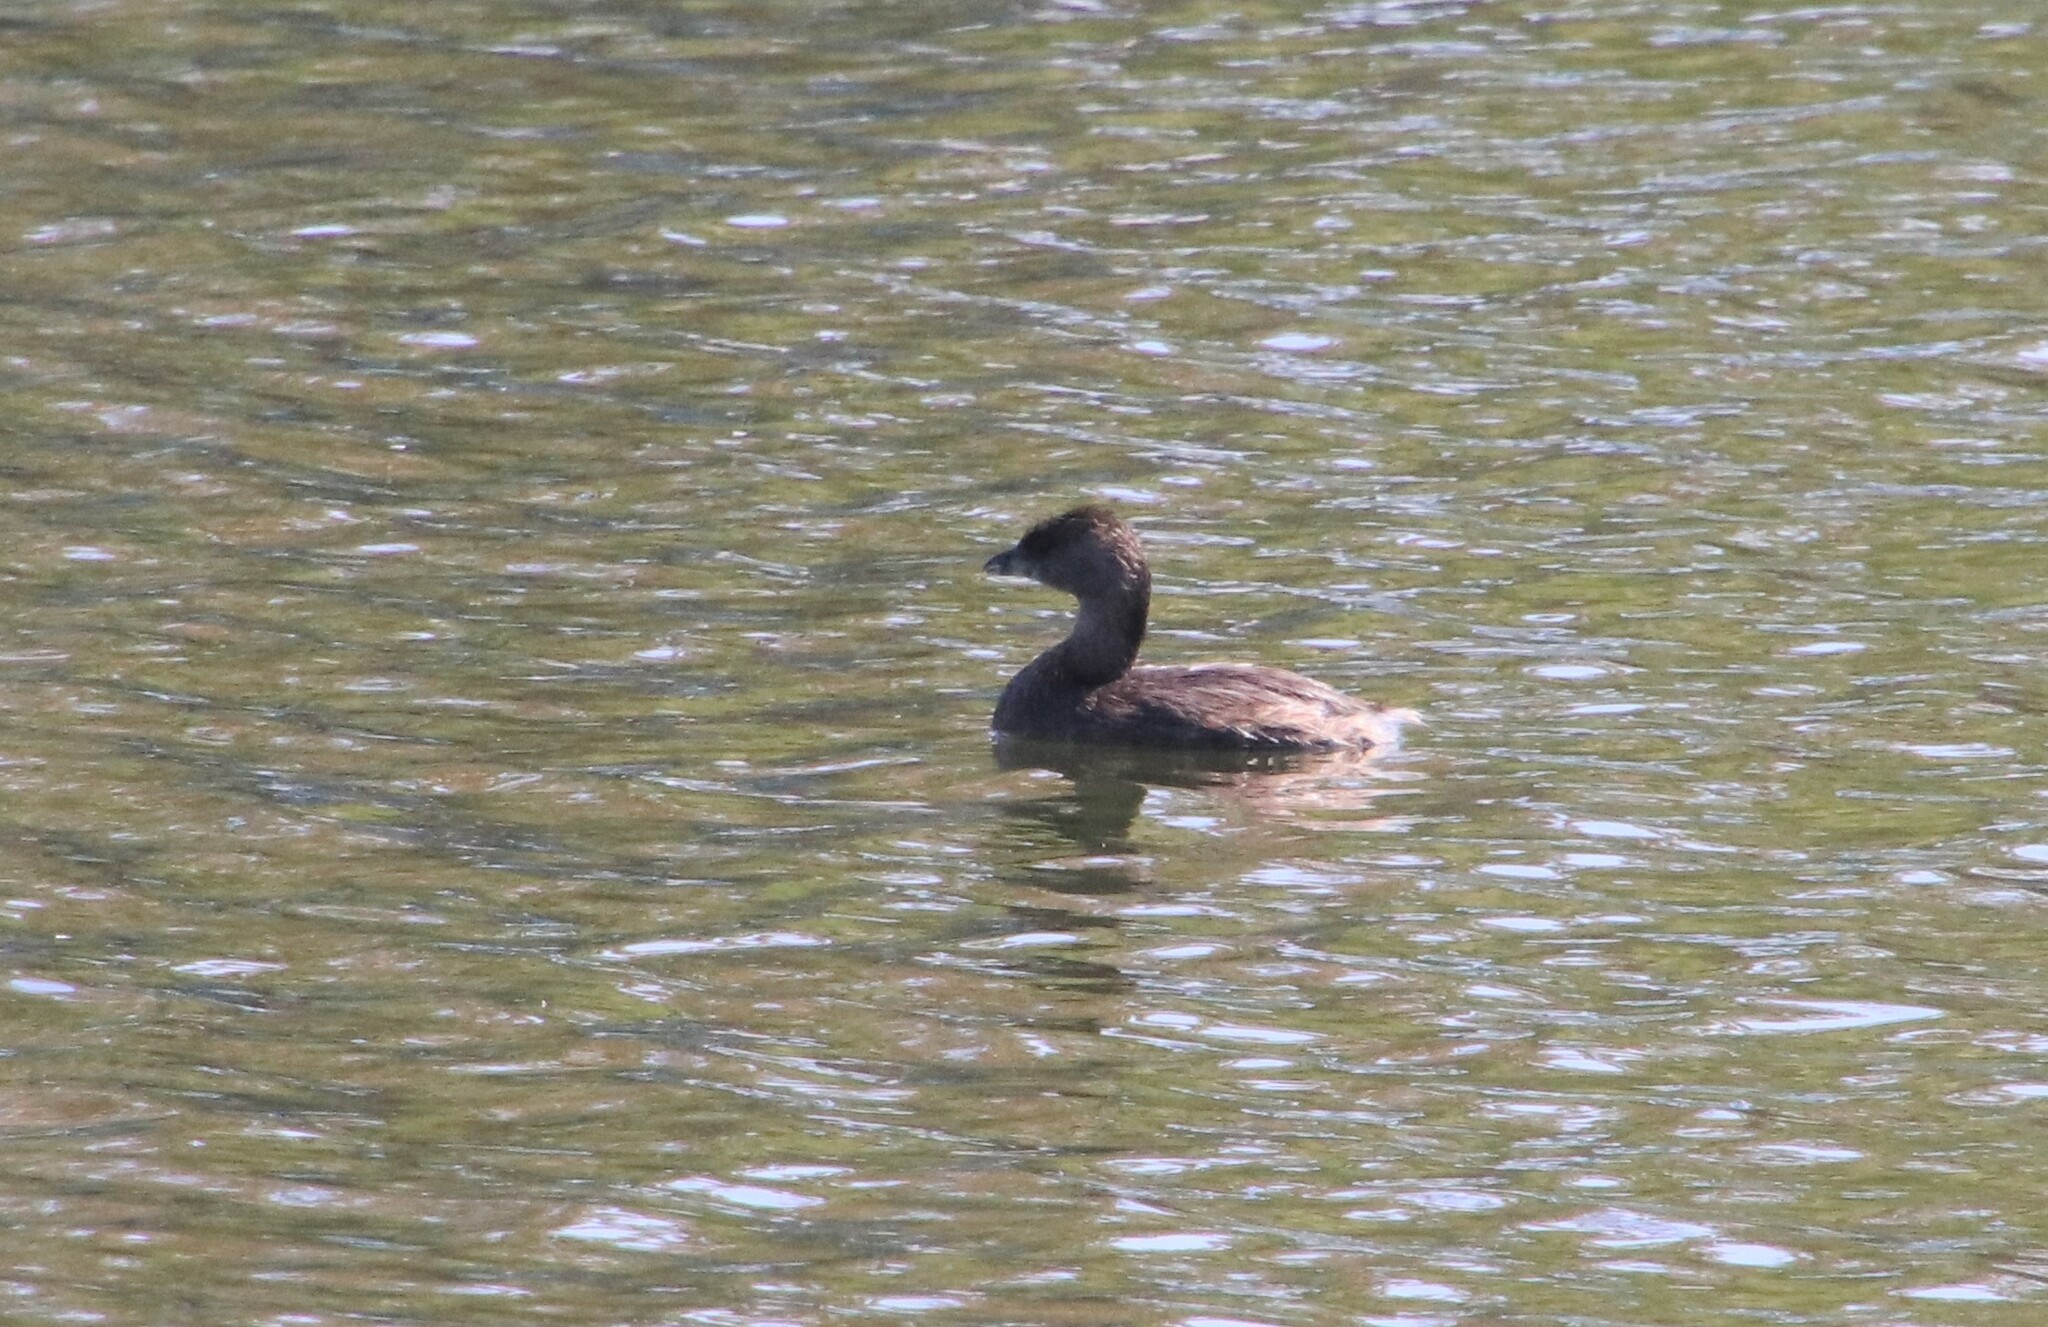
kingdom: Animalia
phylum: Chordata
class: Aves
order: Podicipediformes
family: Podicipedidae
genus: Podilymbus
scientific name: Podilymbus podiceps
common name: Pied-billed grebe
